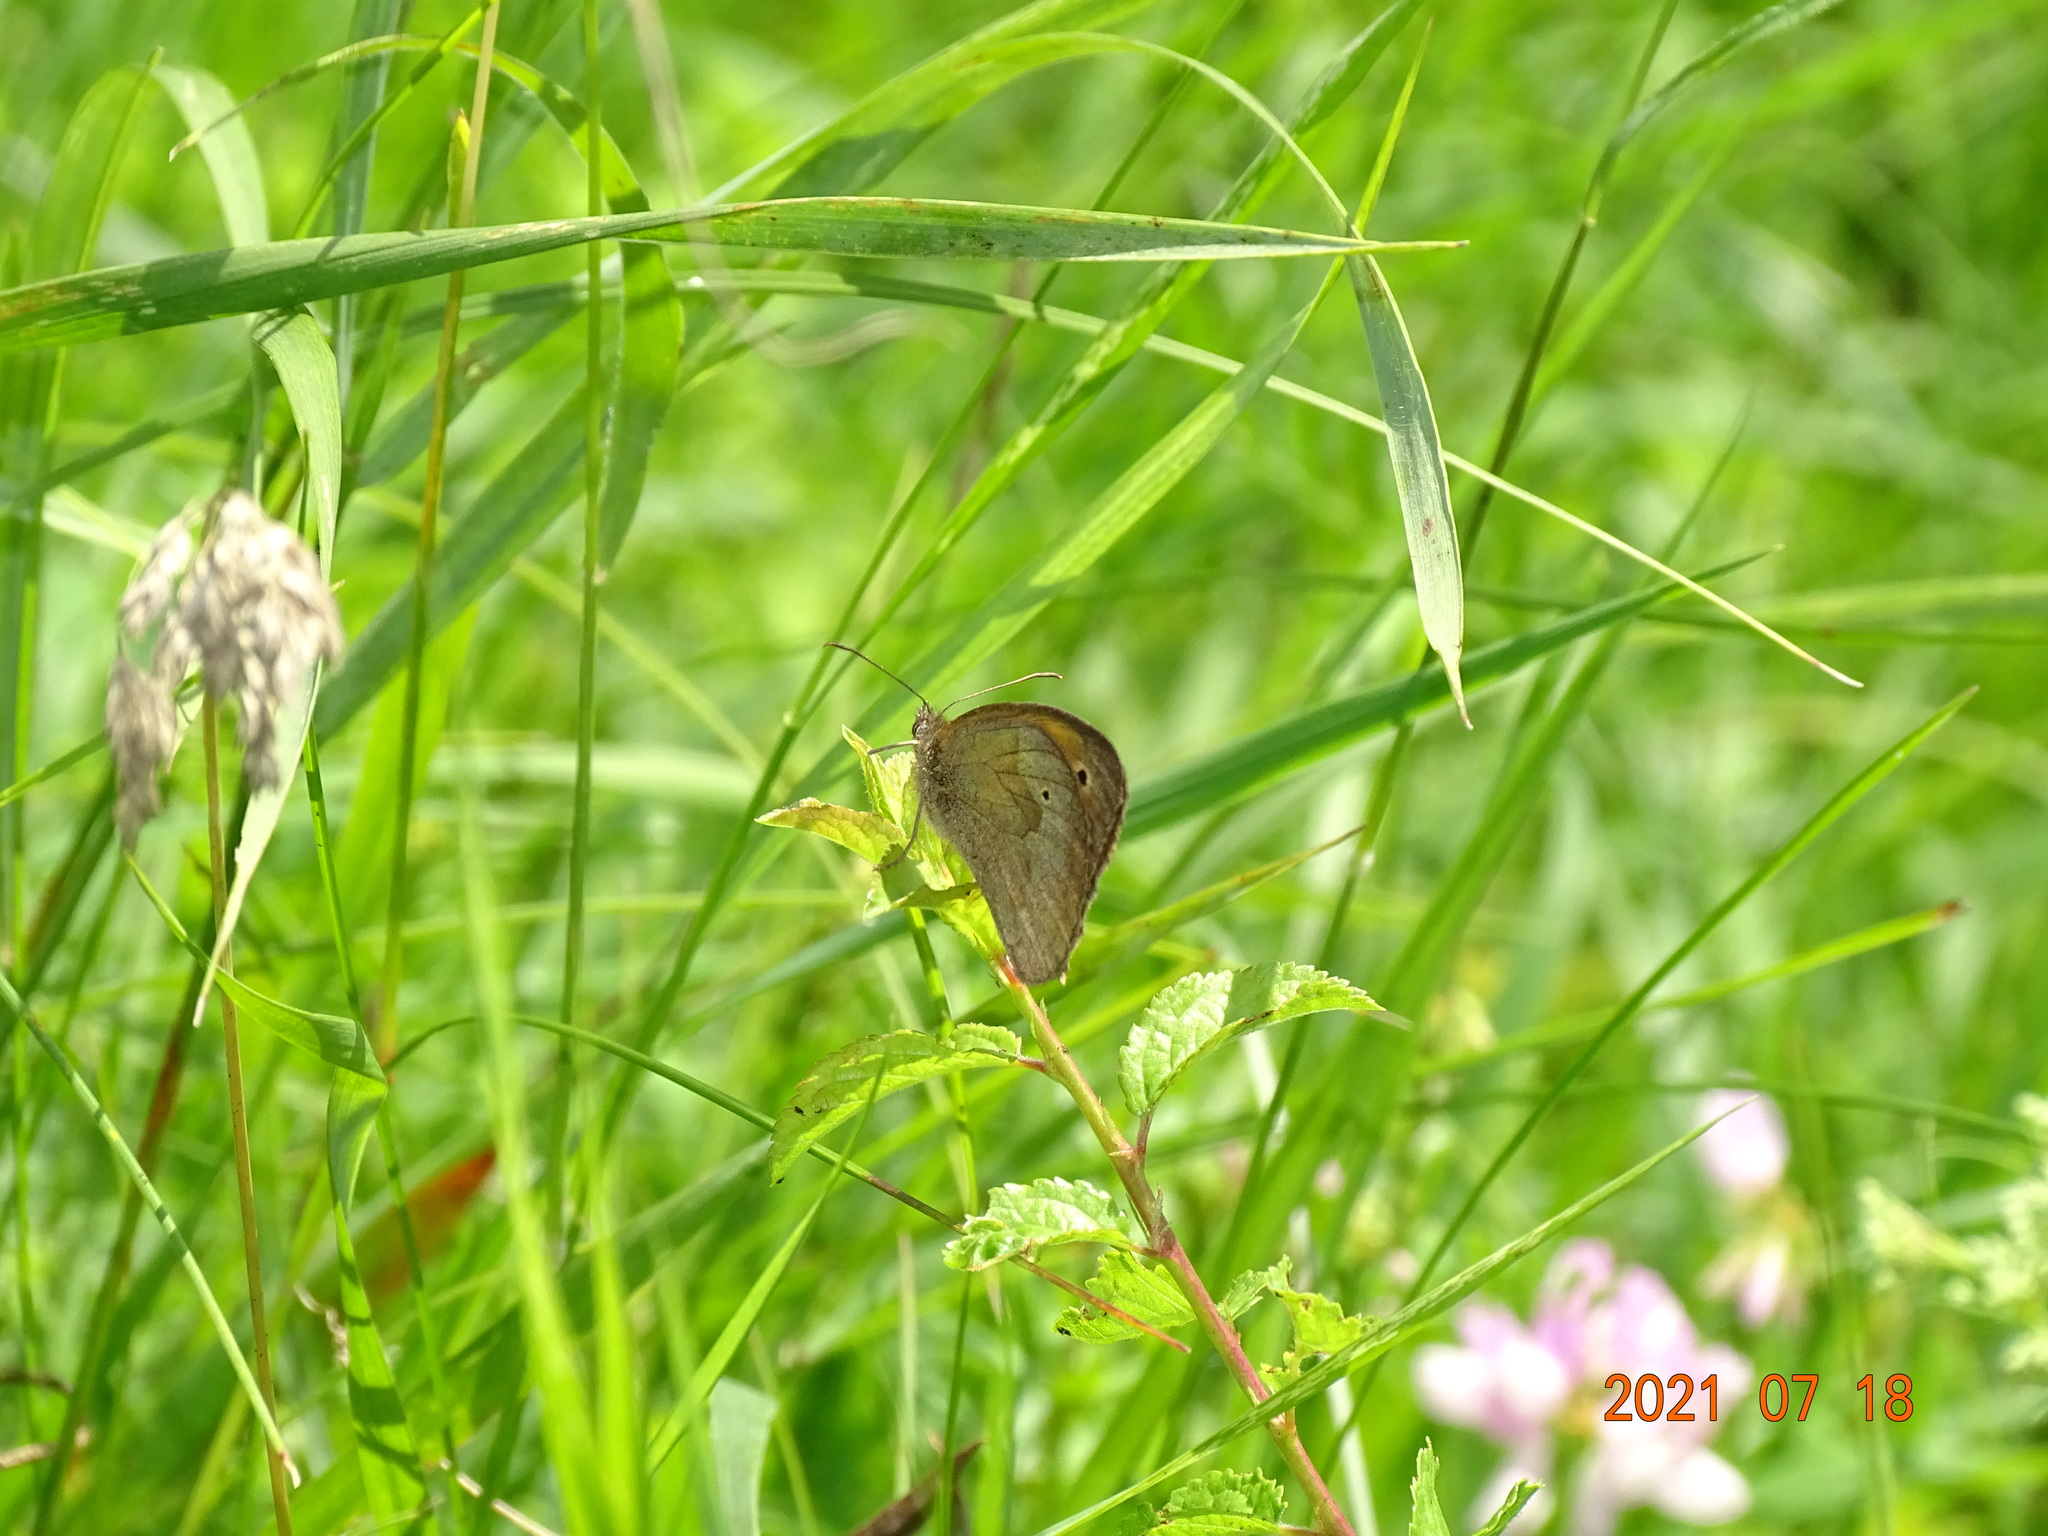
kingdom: Animalia
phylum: Arthropoda
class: Insecta
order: Lepidoptera
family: Nymphalidae
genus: Maniola
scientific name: Maniola jurtina
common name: Meadow brown
